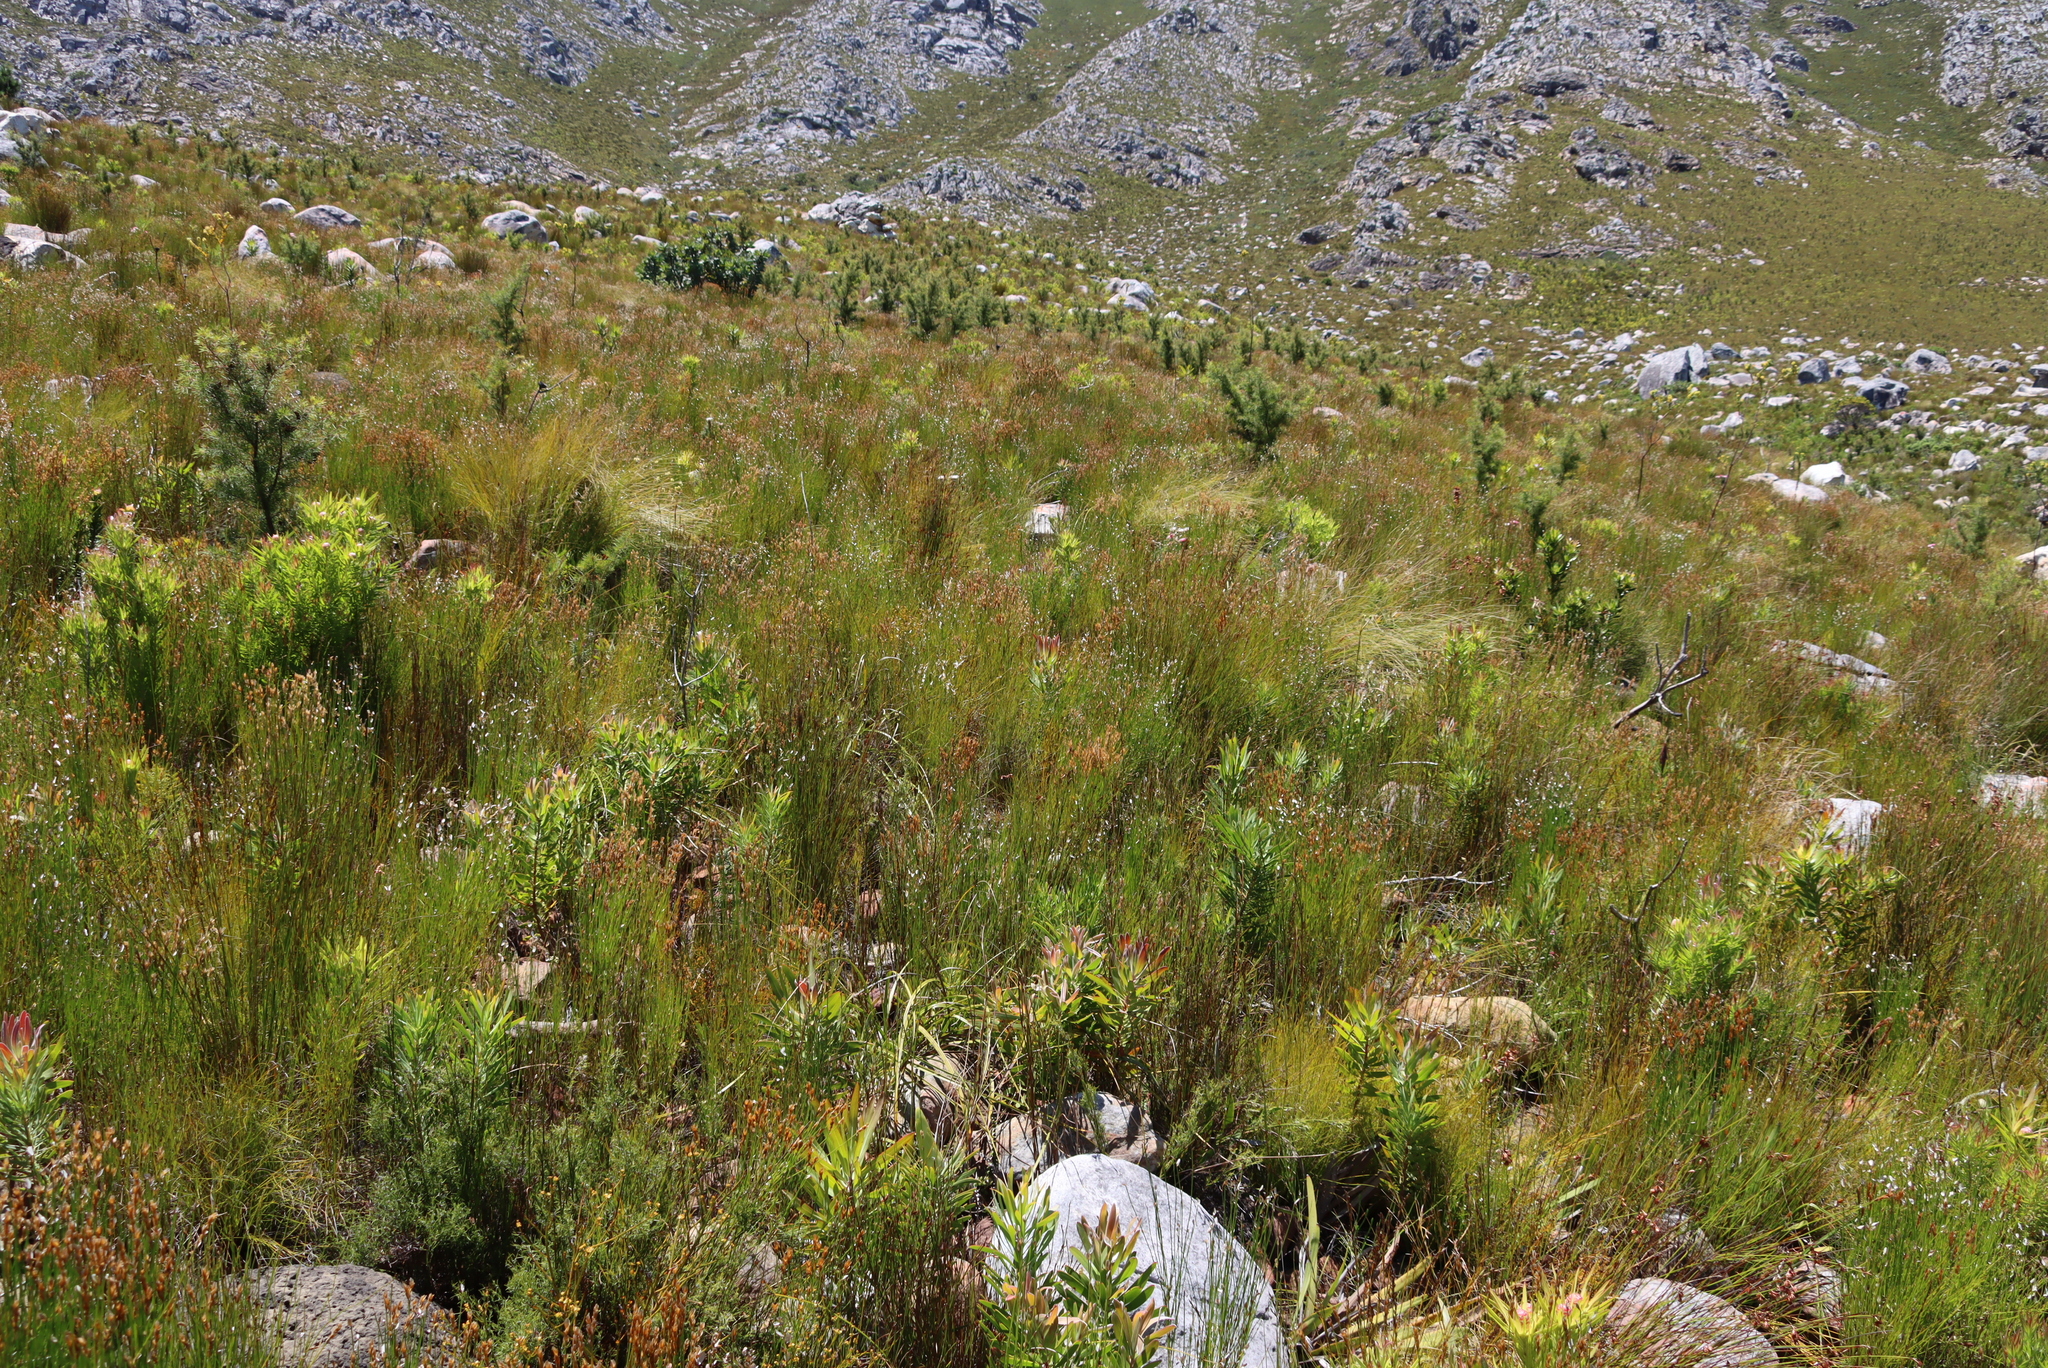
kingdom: Plantae
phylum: Tracheophyta
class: Magnoliopsida
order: Proteales
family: Proteaceae
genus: Protea
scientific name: Protea laurifolia
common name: Grey-leaf sugarbsh
